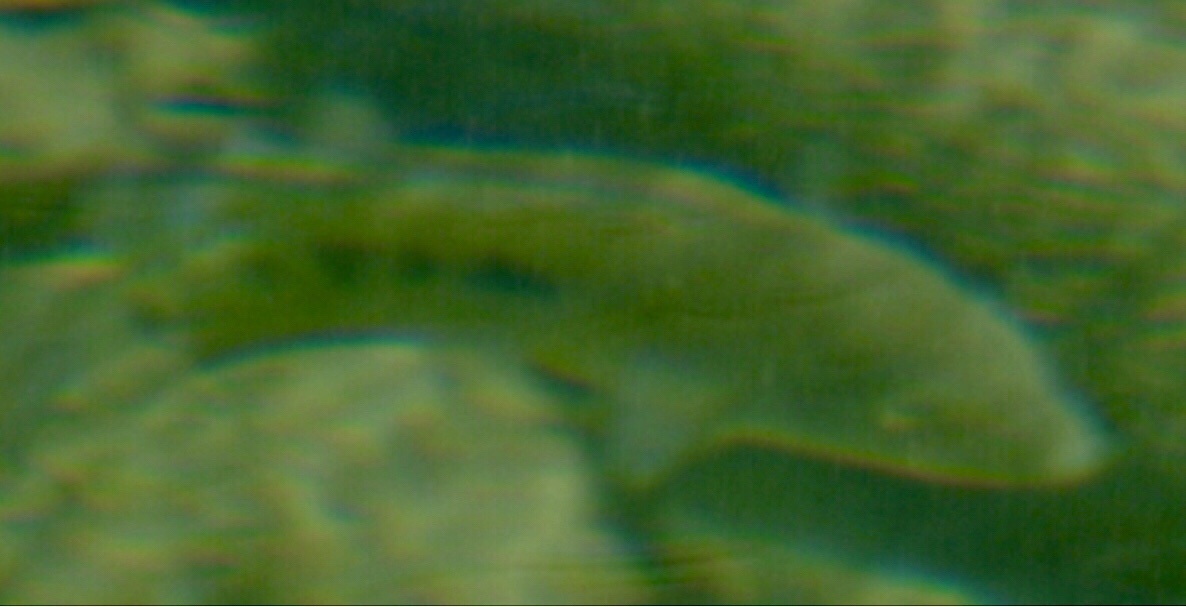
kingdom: Animalia
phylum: Chordata
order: Perciformes
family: Cichlidae
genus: Herichthys
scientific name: Herichthys cyanoguttatus
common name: Rio grande cichlid
